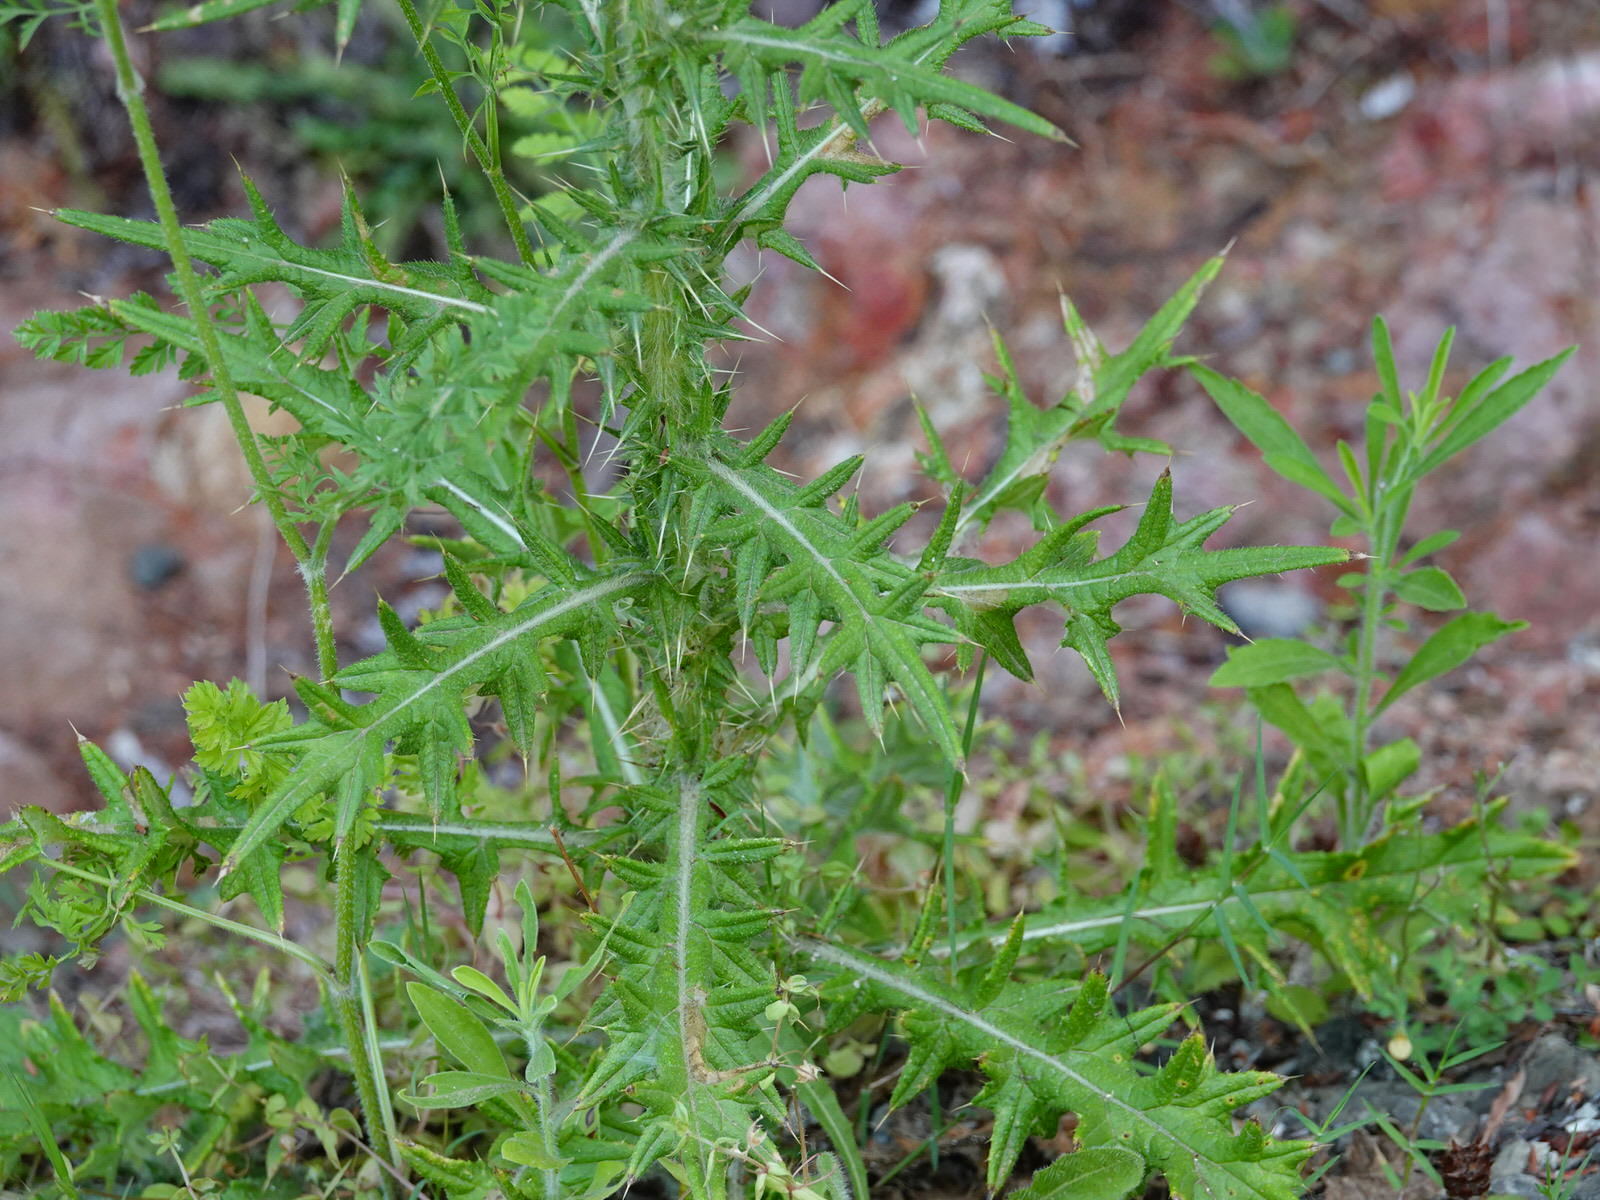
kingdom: Plantae
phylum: Tracheophyta
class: Magnoliopsida
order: Asterales
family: Asteraceae
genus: Cirsium
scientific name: Cirsium vulgare
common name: Bull thistle
